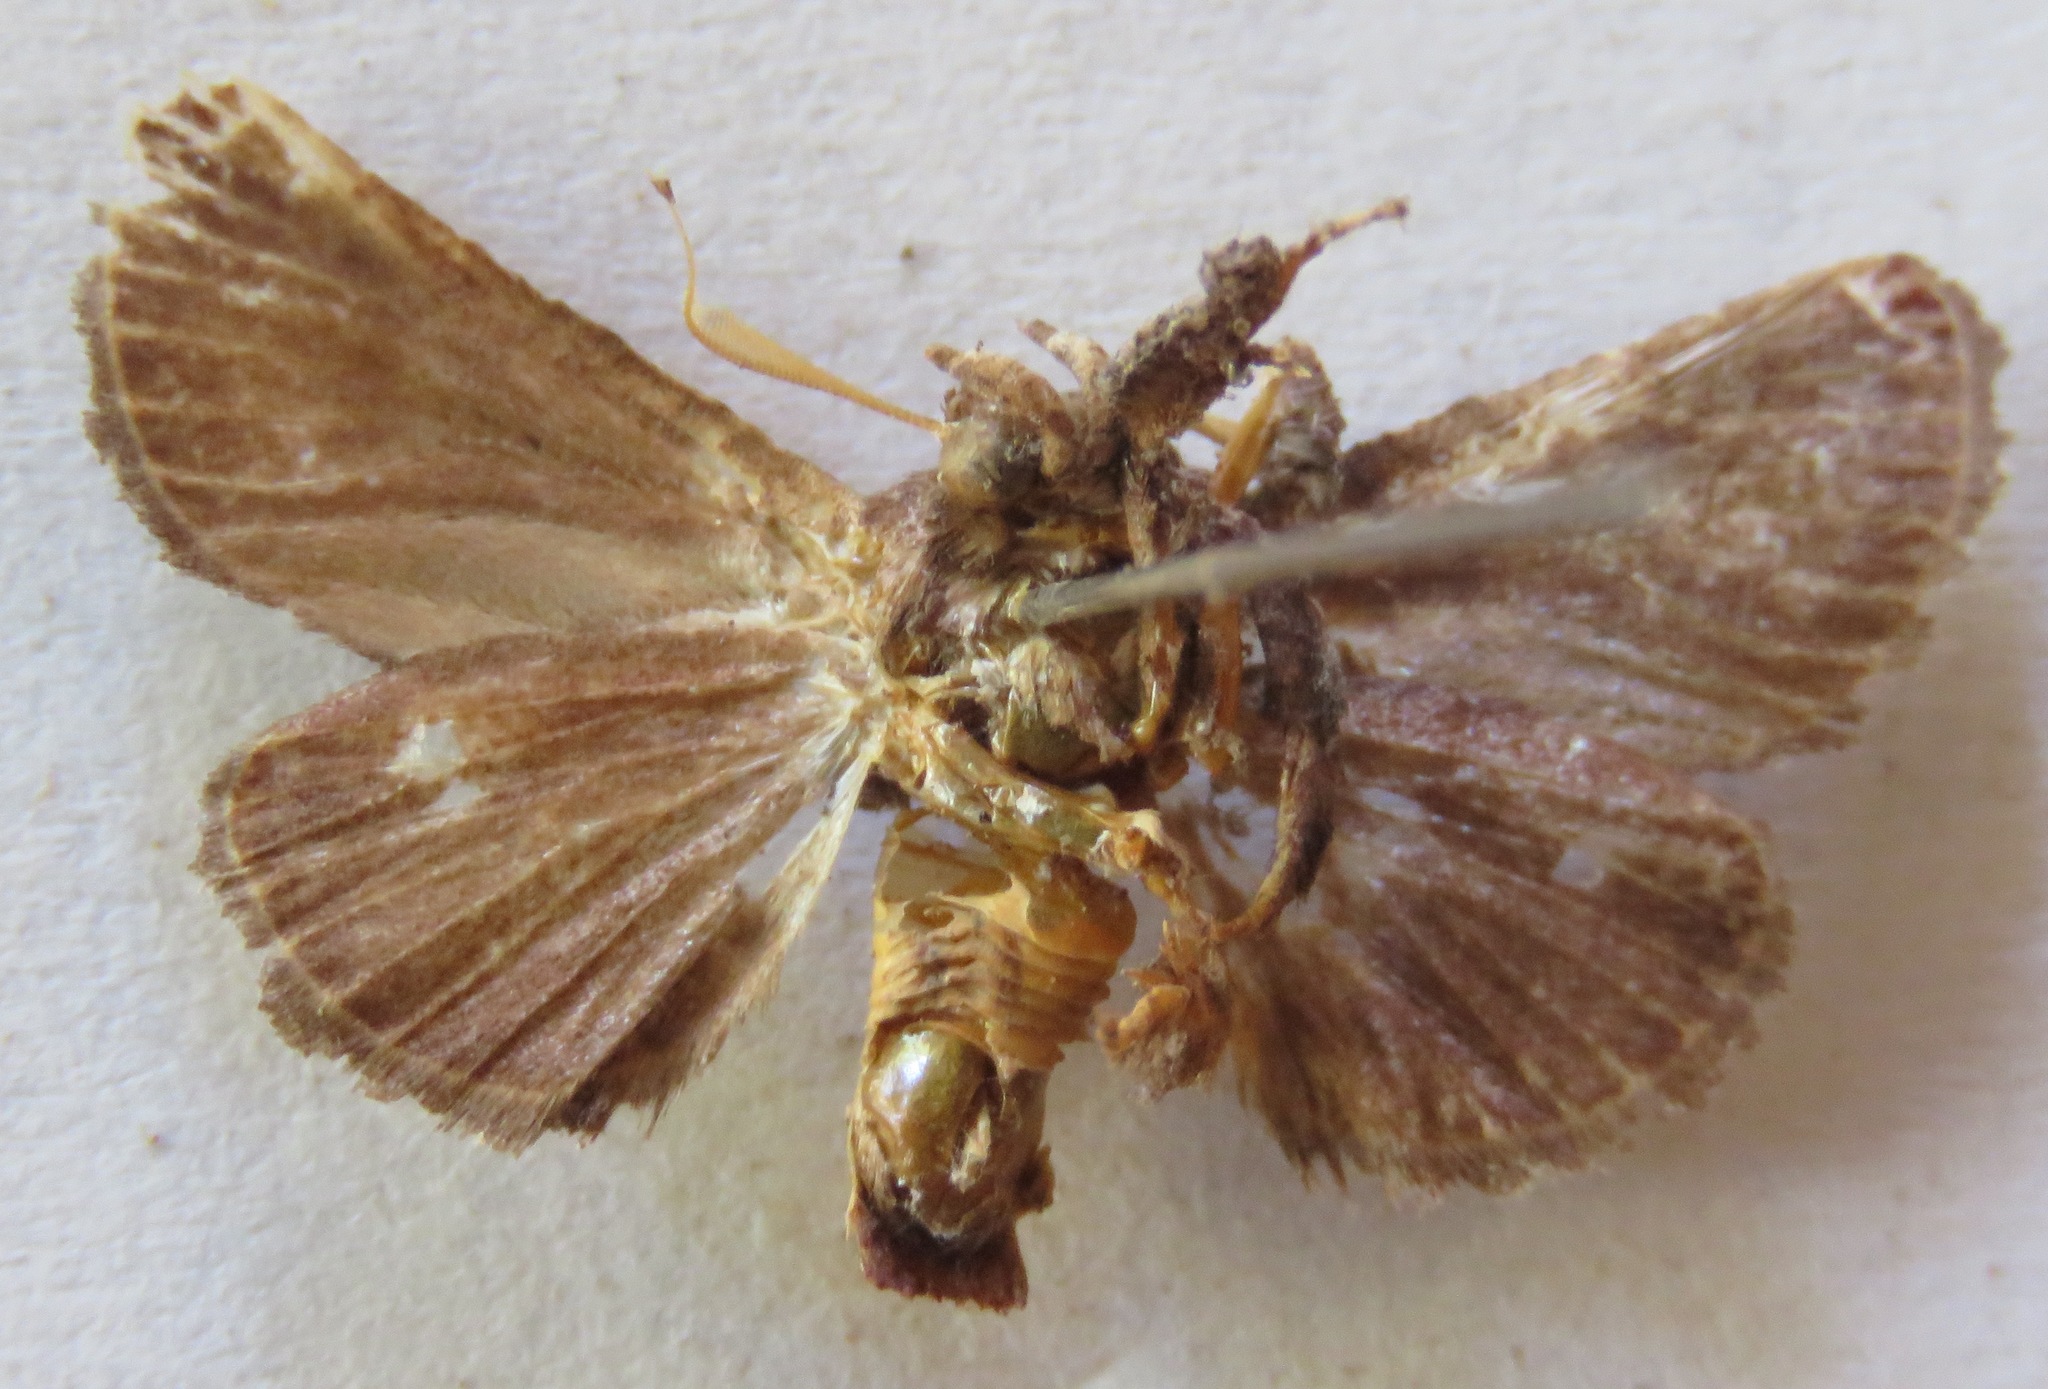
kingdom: Animalia
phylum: Arthropoda
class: Insecta
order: Lepidoptera
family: Limacodidae
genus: Semyra
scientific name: Semyra coarctata
